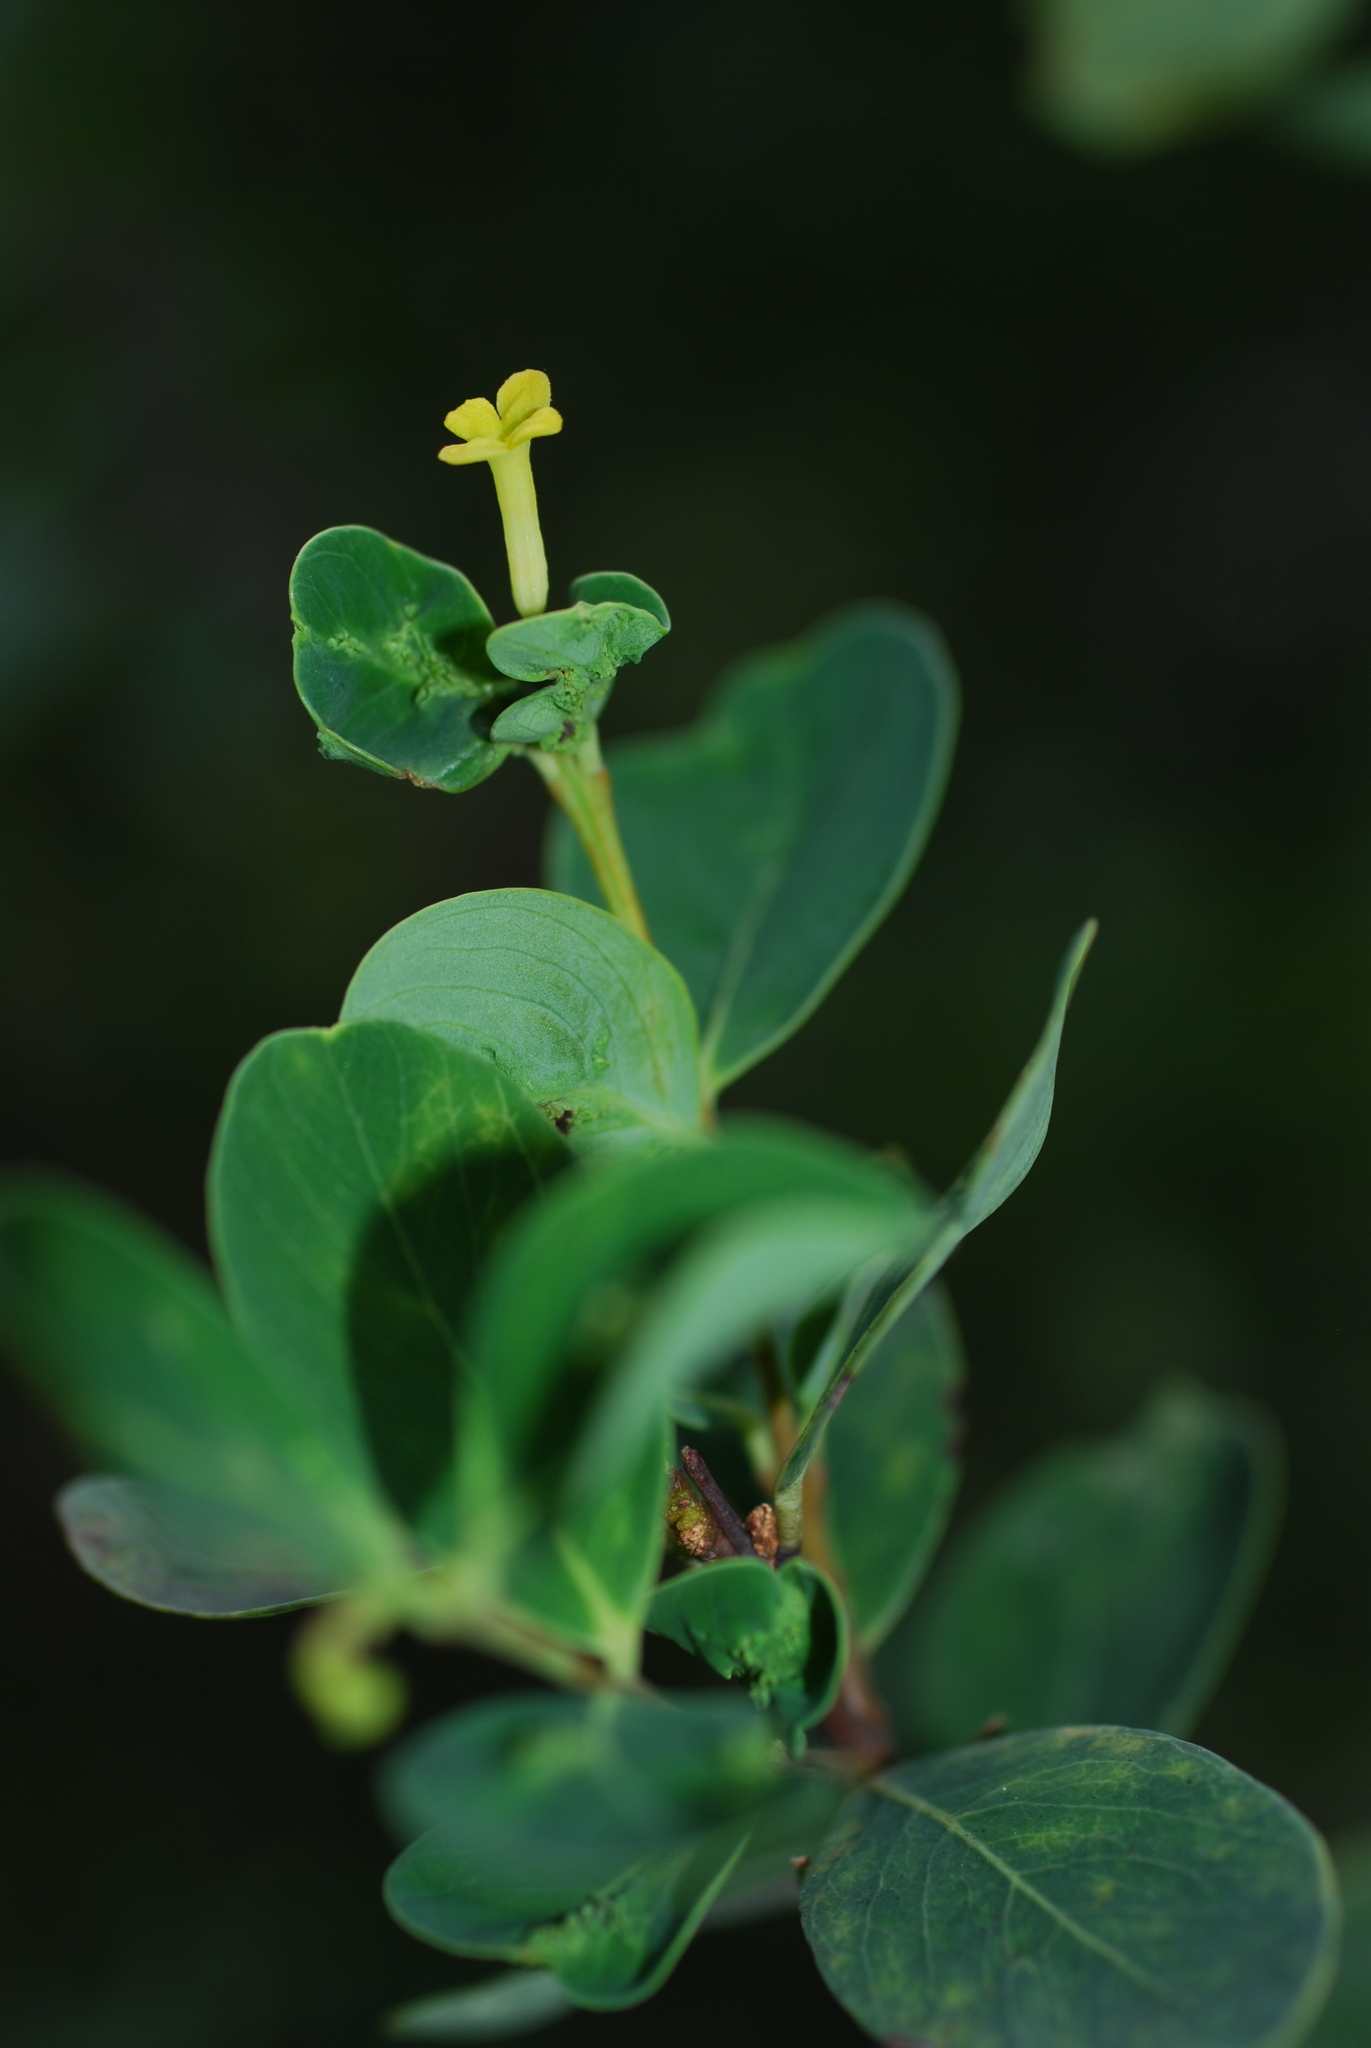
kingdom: Plantae
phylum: Tracheophyta
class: Magnoliopsida
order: Malvales
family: Thymelaeaceae
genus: Wikstroemia
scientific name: Wikstroemia indica
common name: Tiebush
